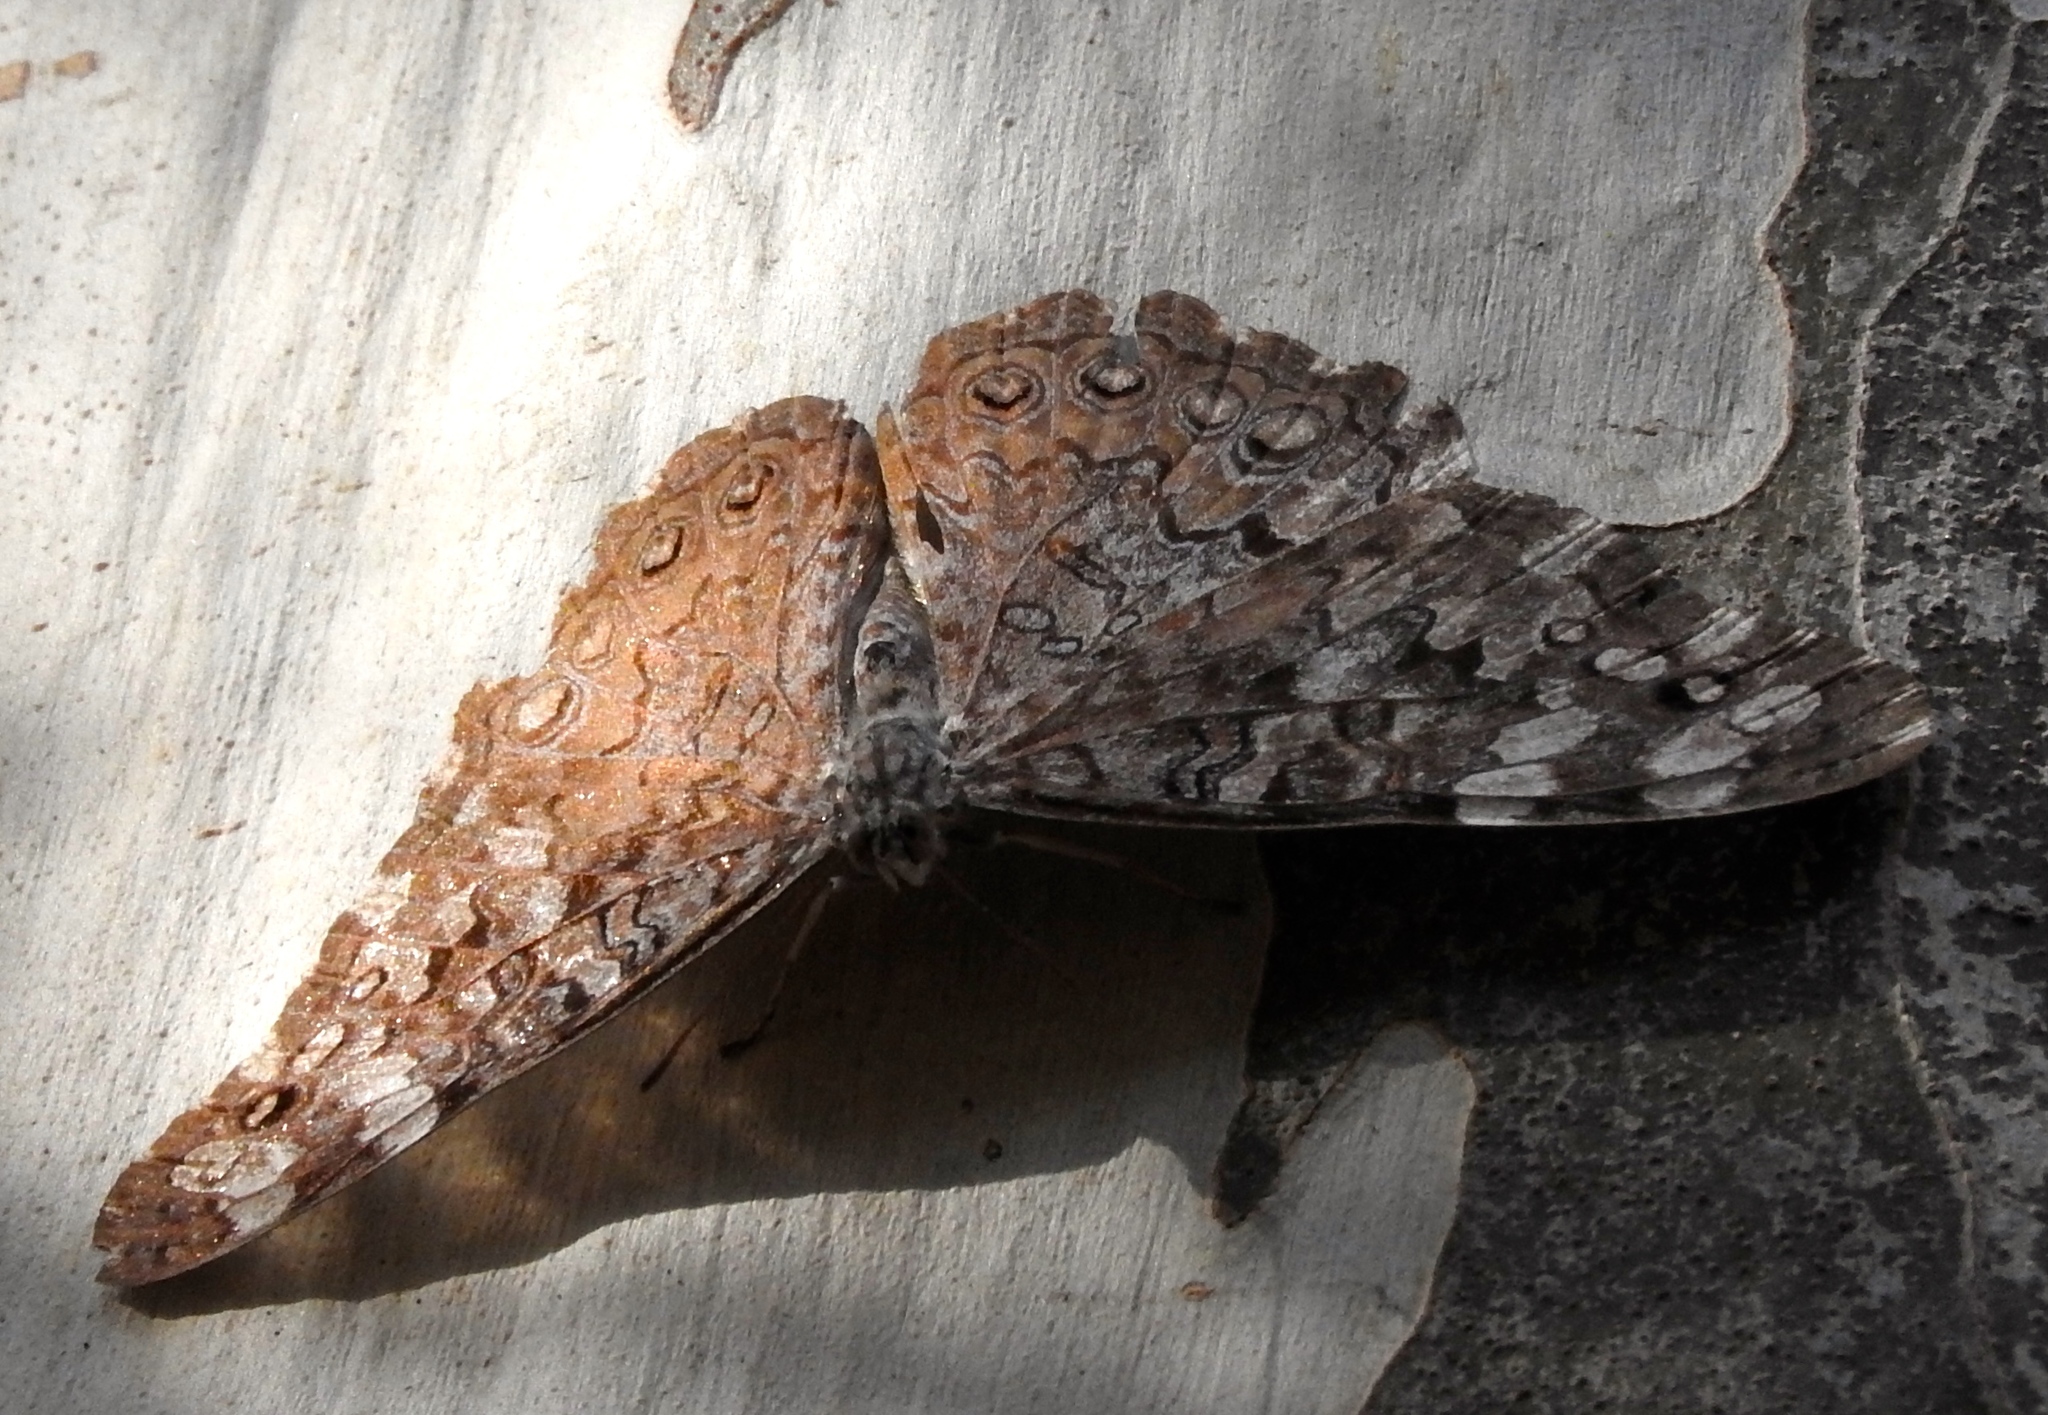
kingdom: Animalia
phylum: Arthropoda
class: Insecta
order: Lepidoptera
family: Nymphalidae
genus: Hamadryas
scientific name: Hamadryas februa
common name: Gray cracker
